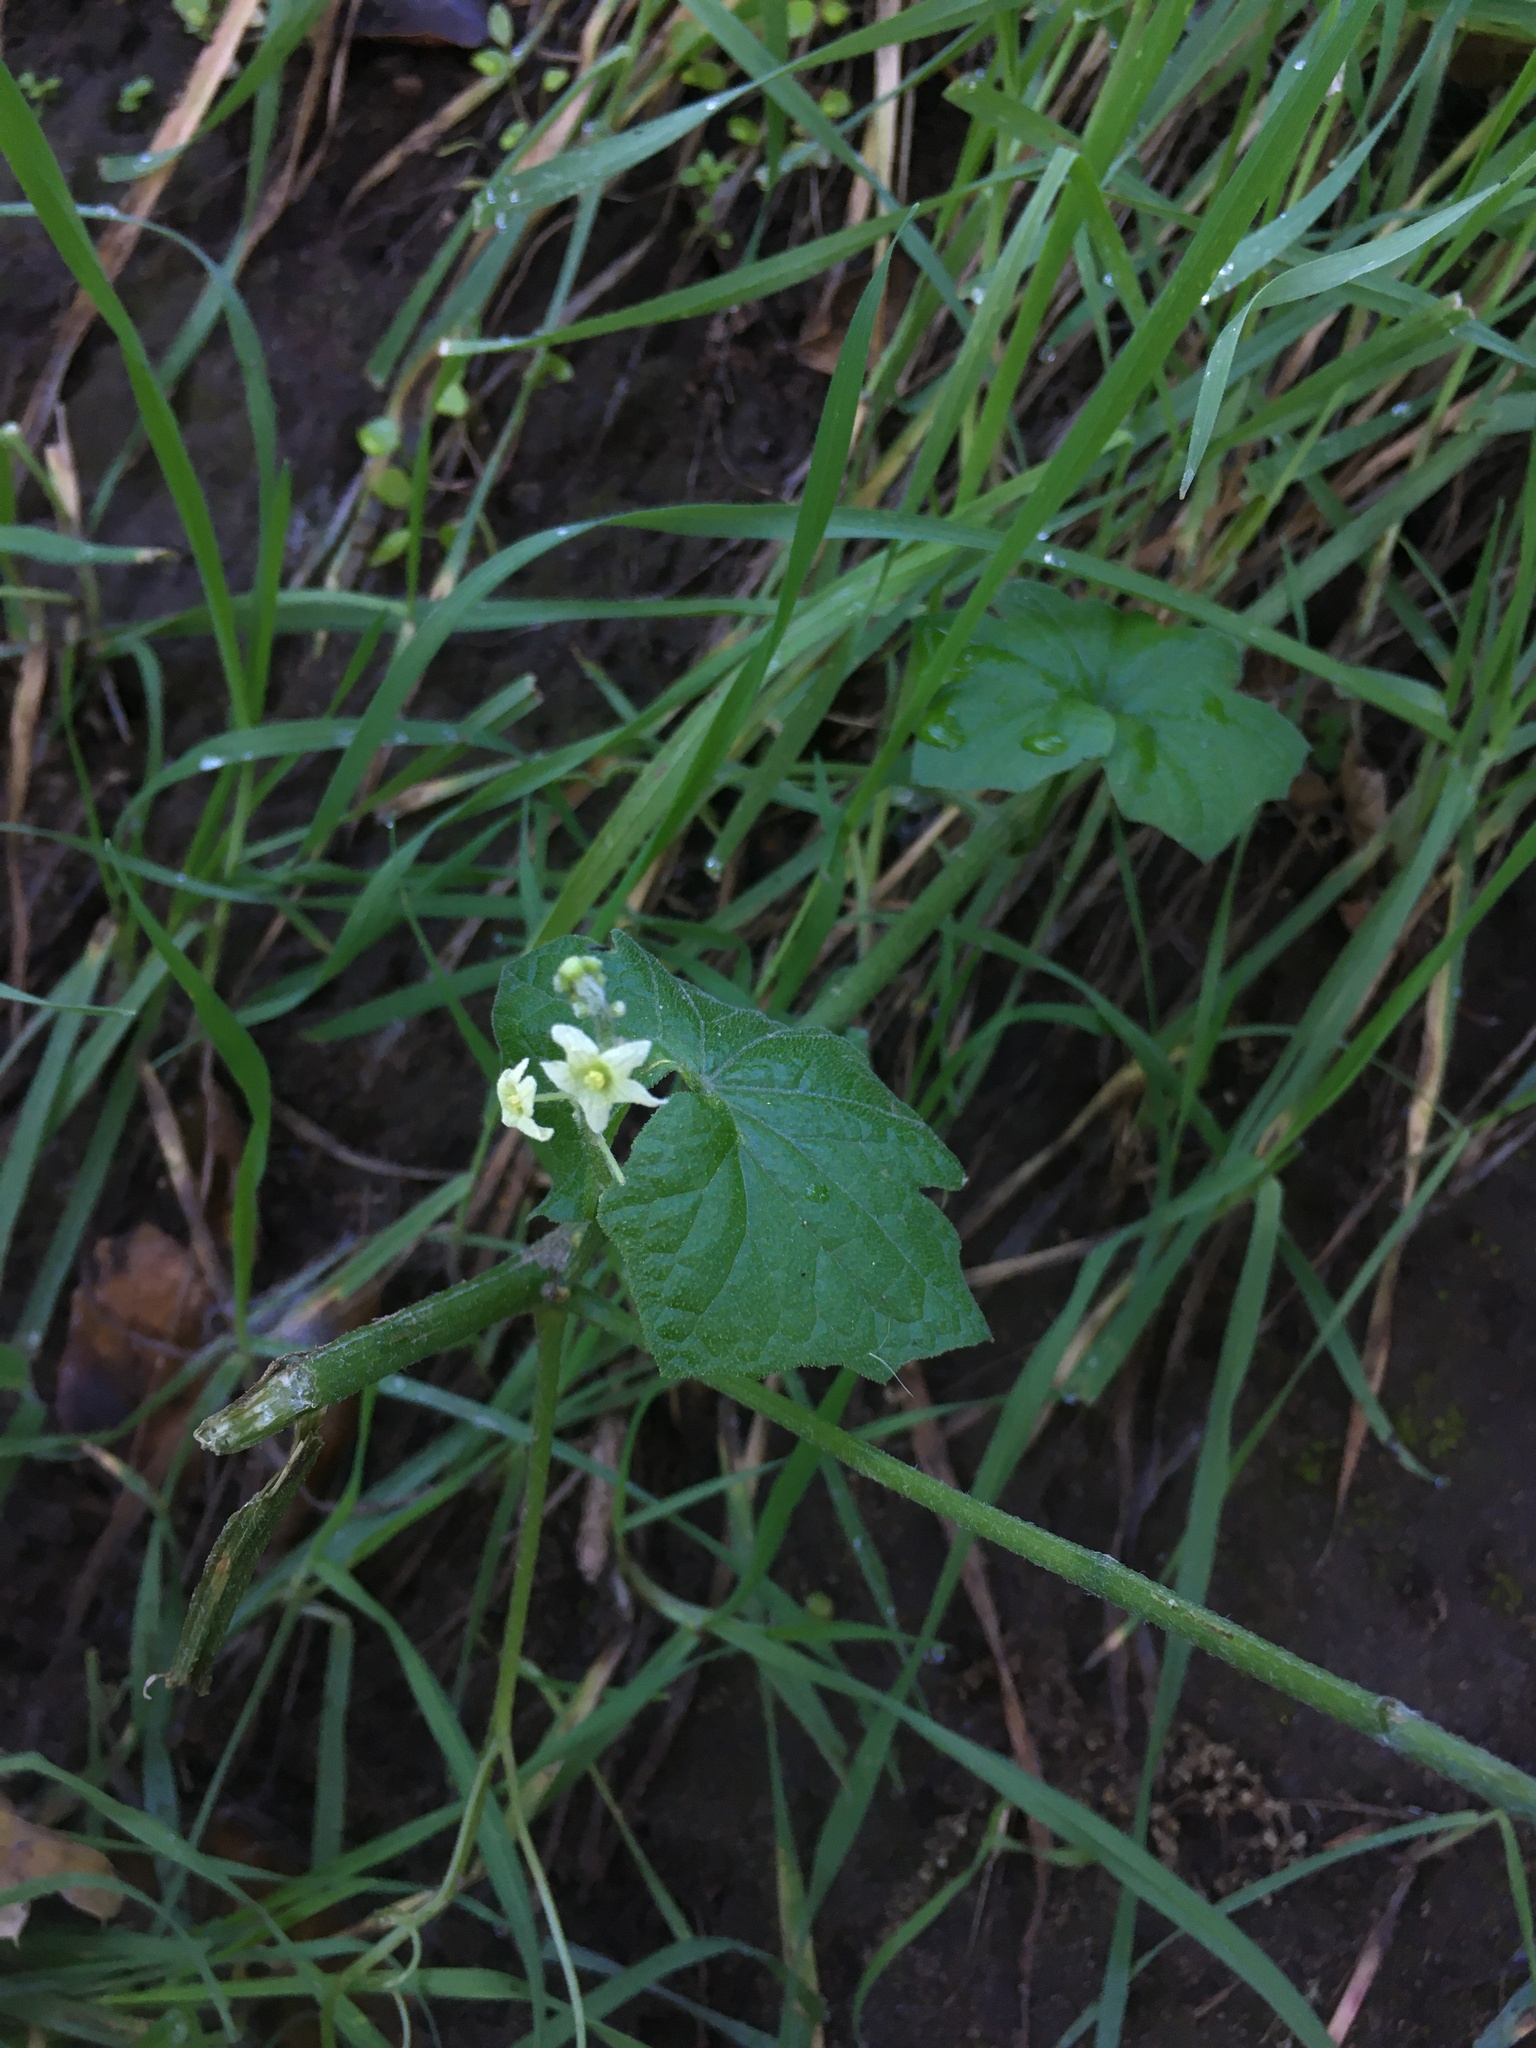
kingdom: Plantae
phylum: Tracheophyta
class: Magnoliopsida
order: Cucurbitales
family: Cucurbitaceae
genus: Marah
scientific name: Marah fabacea
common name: California manroot
